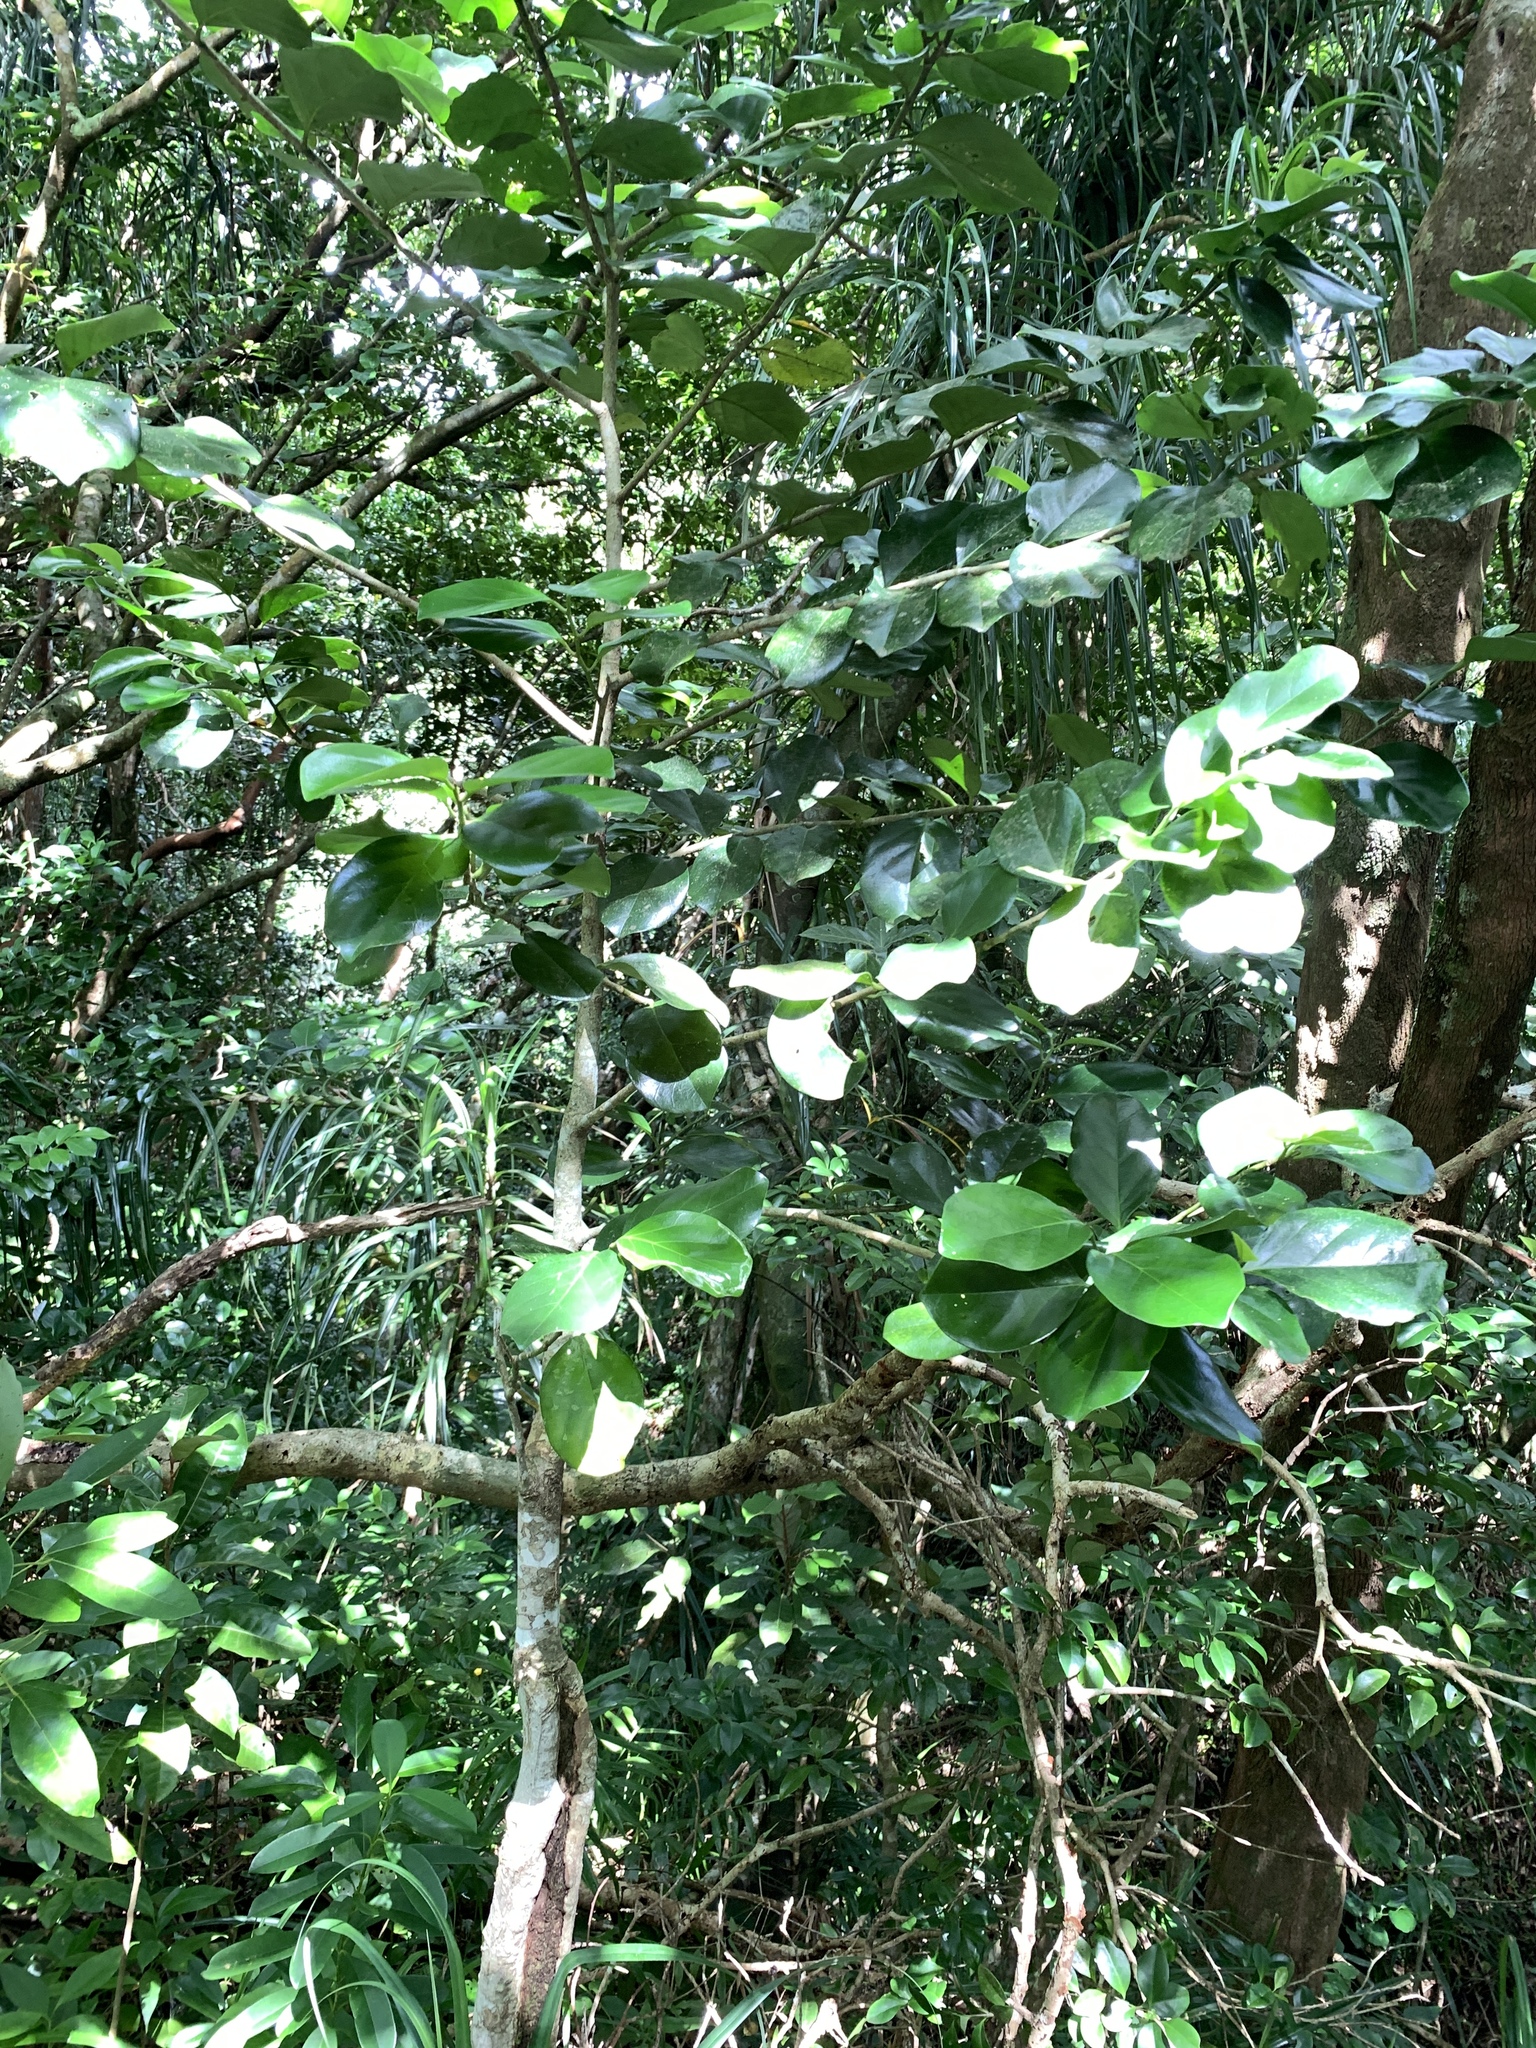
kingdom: Plantae
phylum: Tracheophyta
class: Magnoliopsida
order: Cardiopteridales
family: Stemonuraceae
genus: Gomphandra
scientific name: Gomphandra luzoniensis
